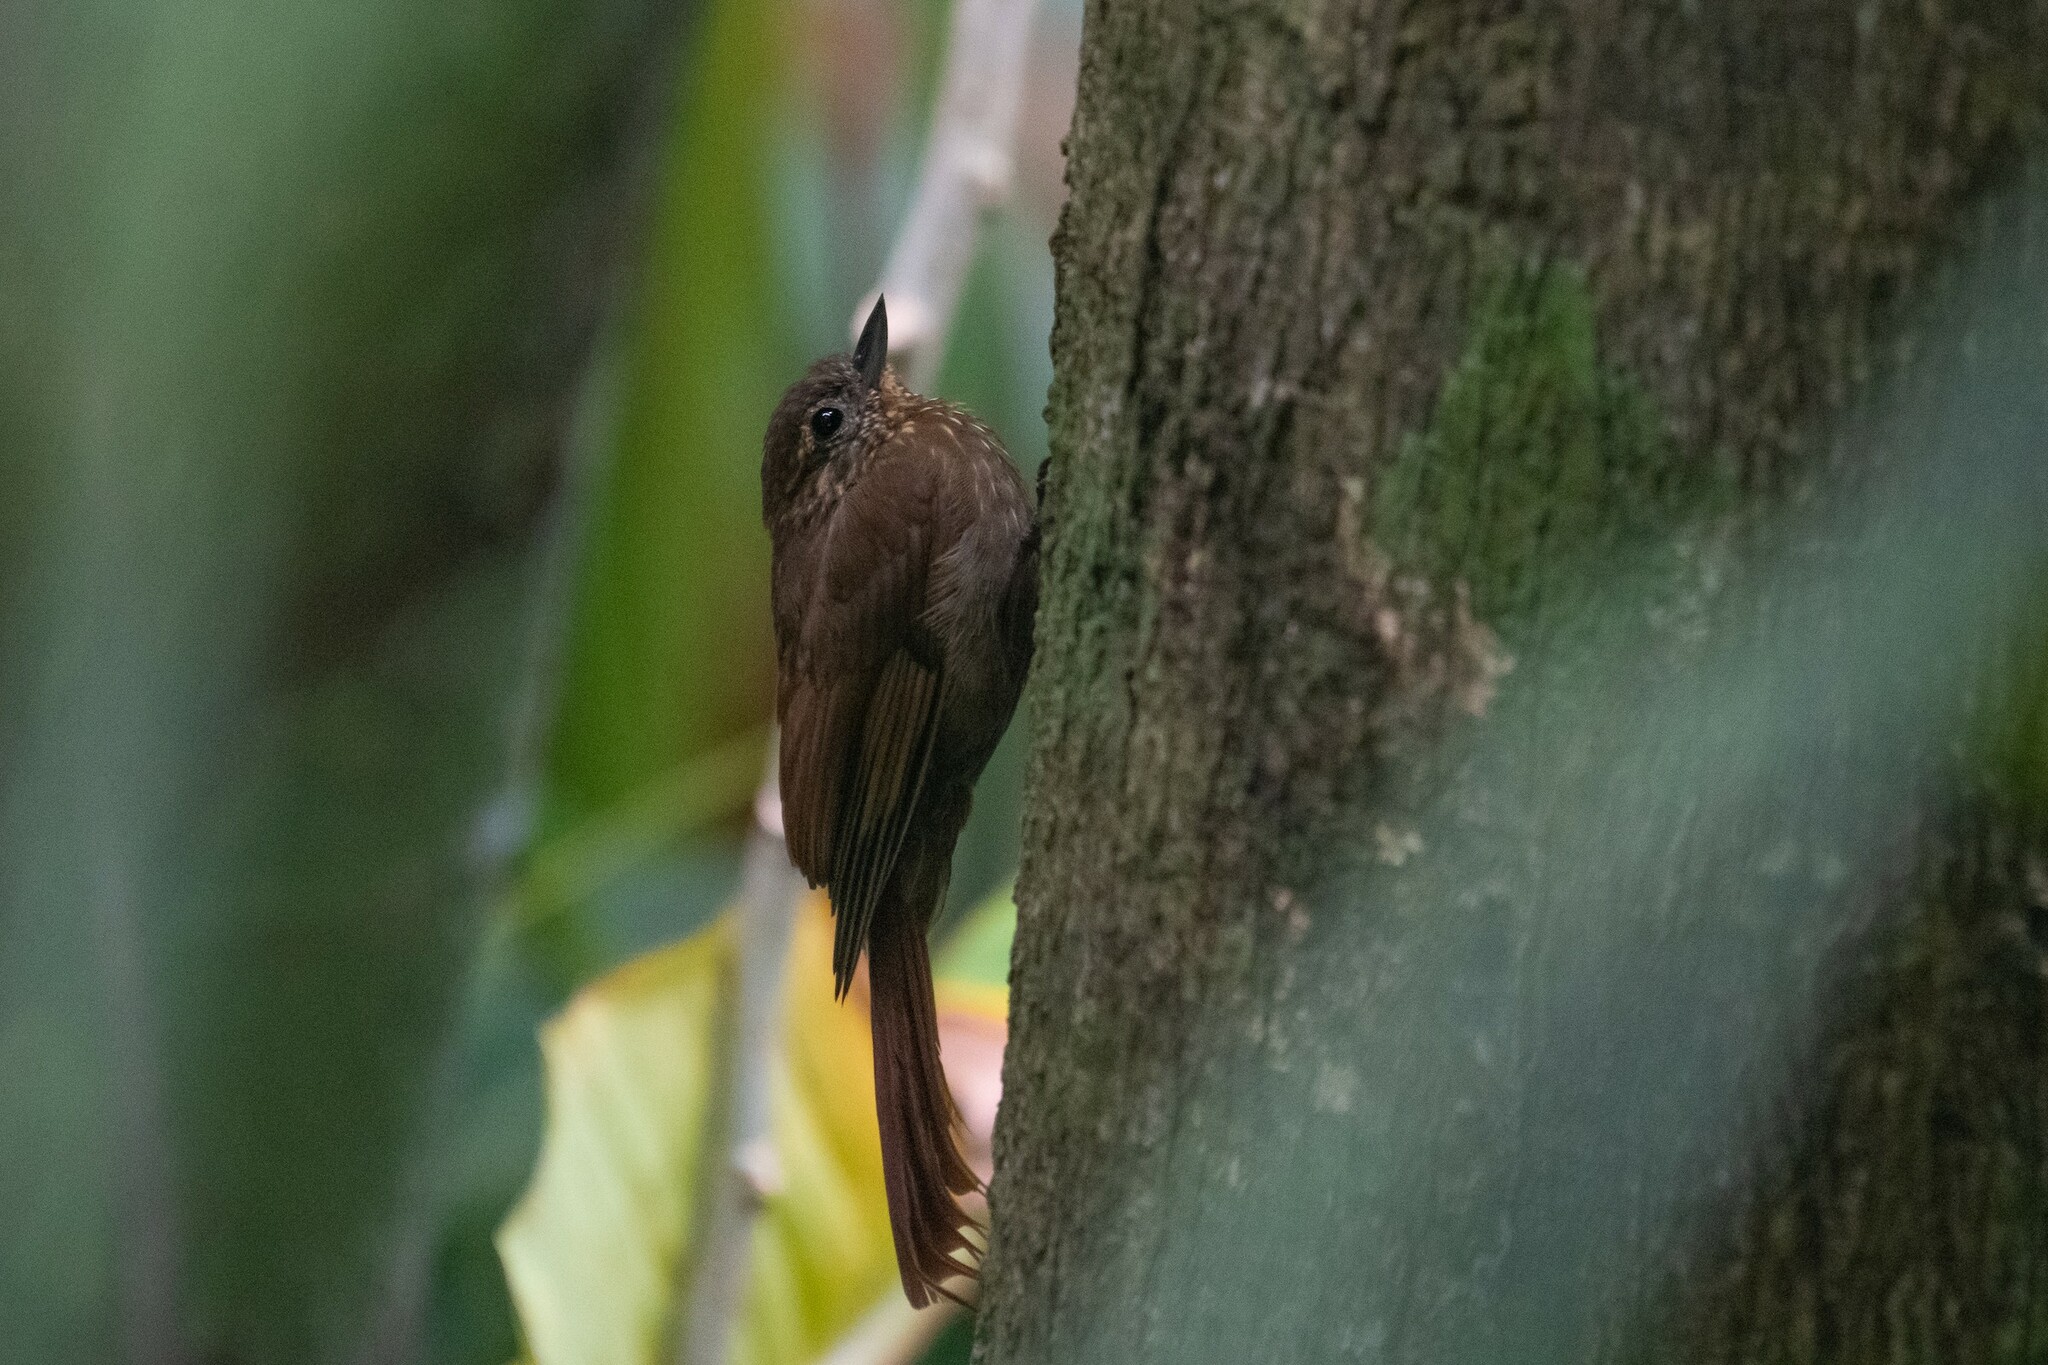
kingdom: Animalia
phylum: Chordata
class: Aves
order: Passeriformes
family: Furnariidae
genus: Glyphorynchus
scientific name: Glyphorynchus spirurus
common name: Wedge-billed woodcreeper
